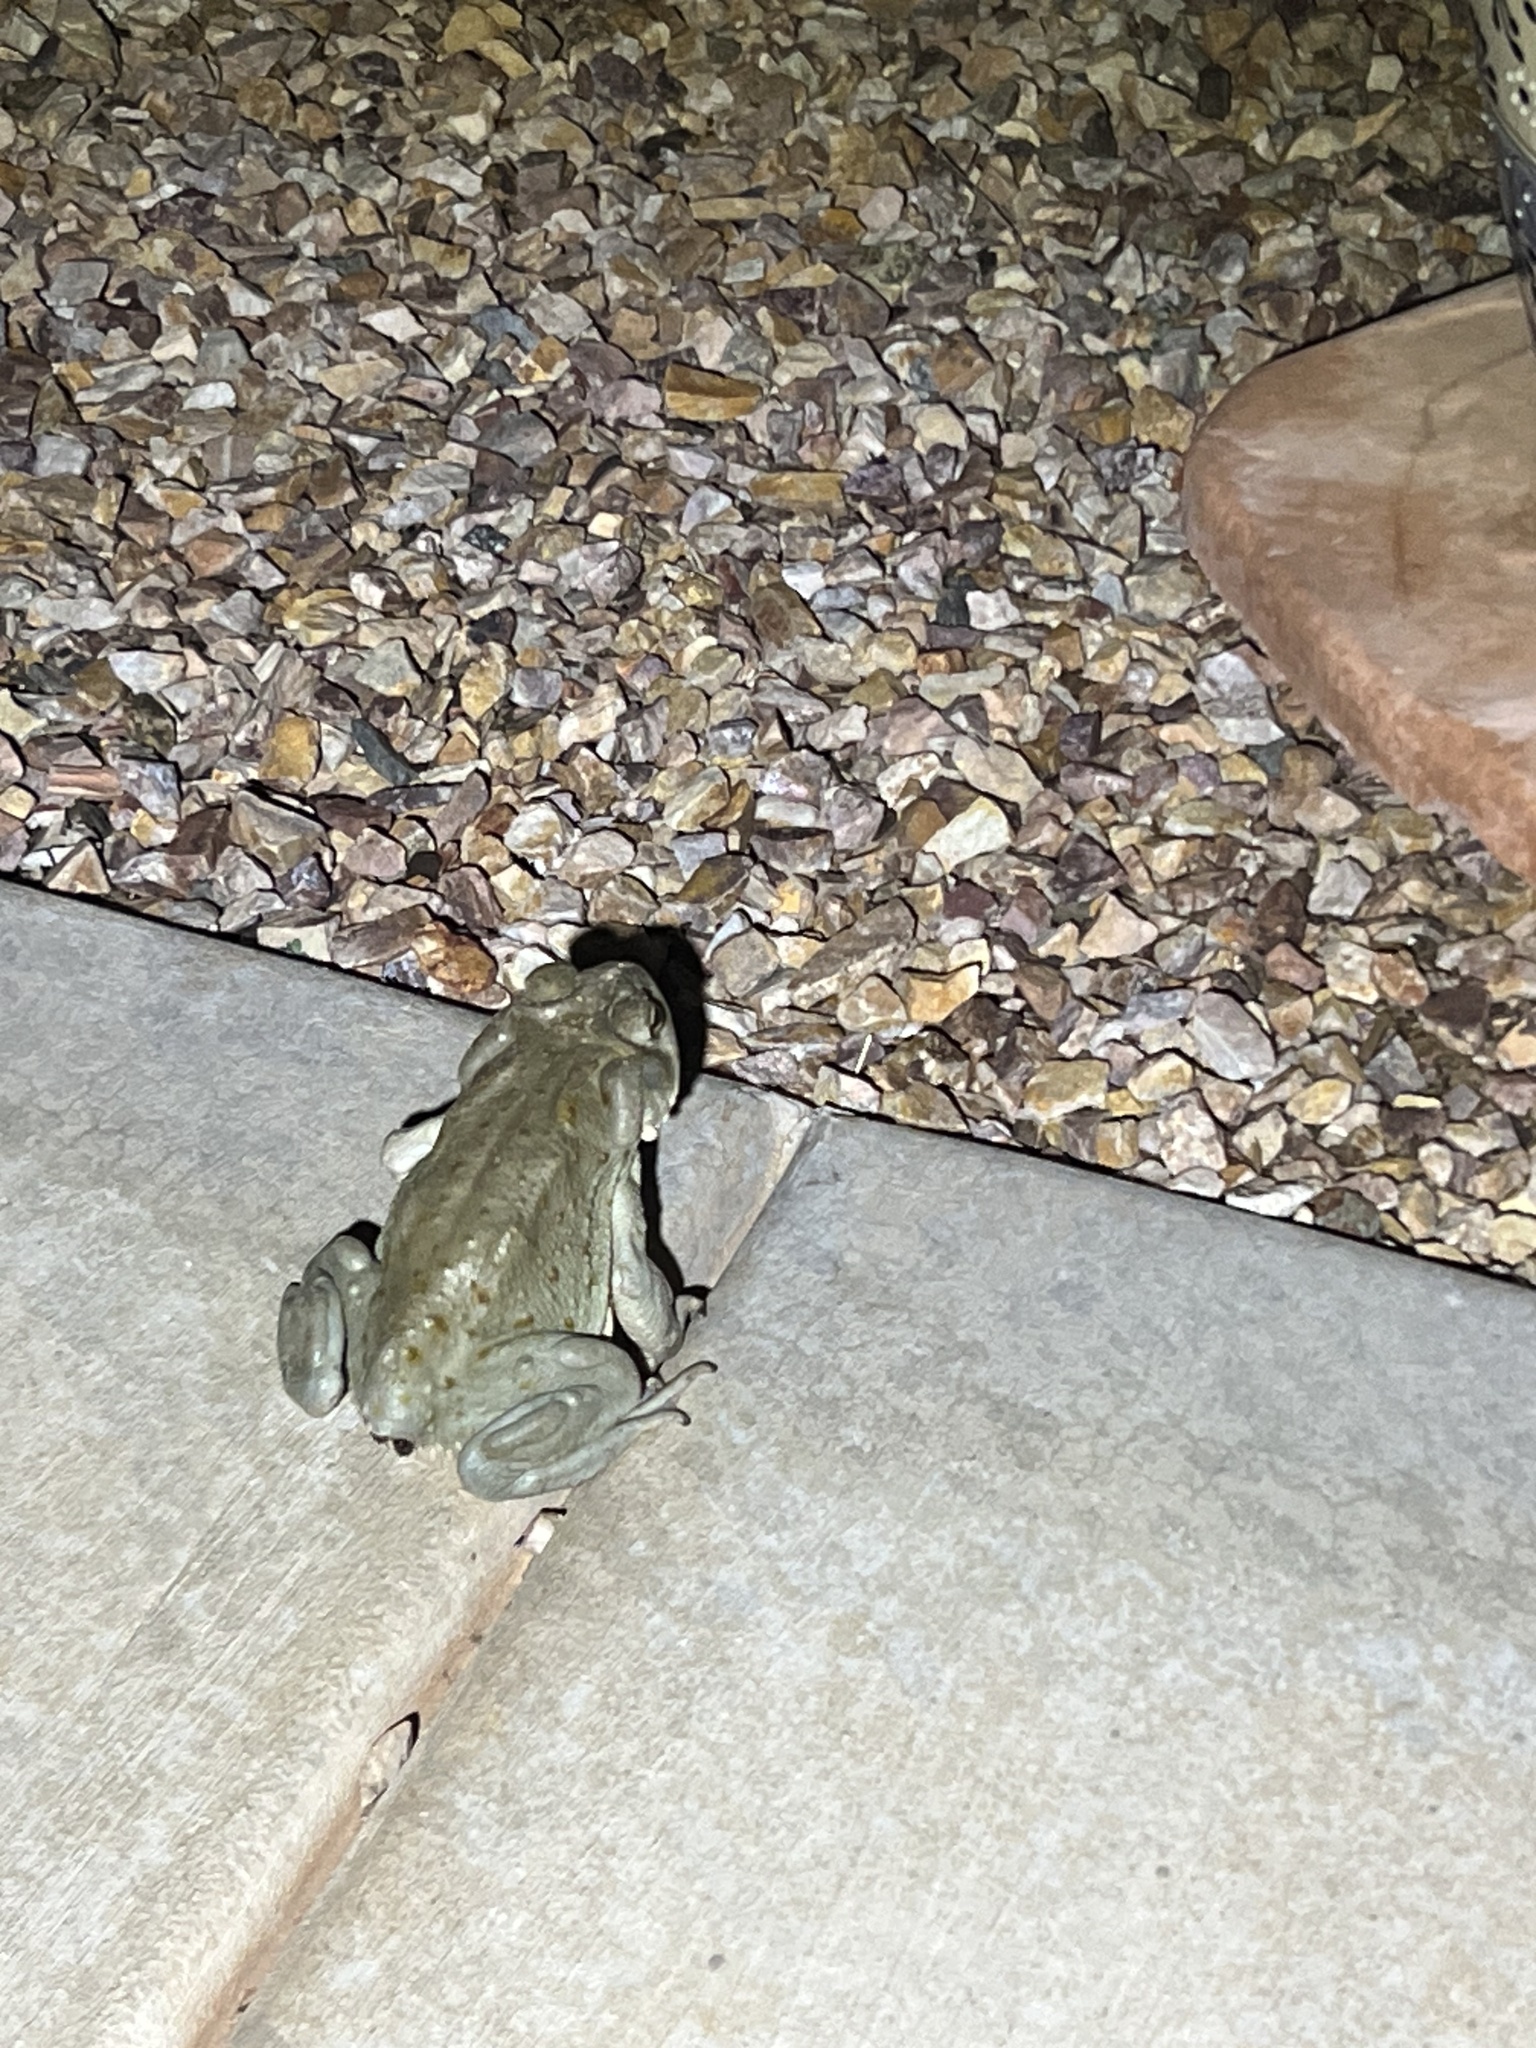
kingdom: Animalia
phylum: Chordata
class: Amphibia
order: Anura
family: Bufonidae
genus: Incilius
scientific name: Incilius alvarius
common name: Sonoran desert toad
